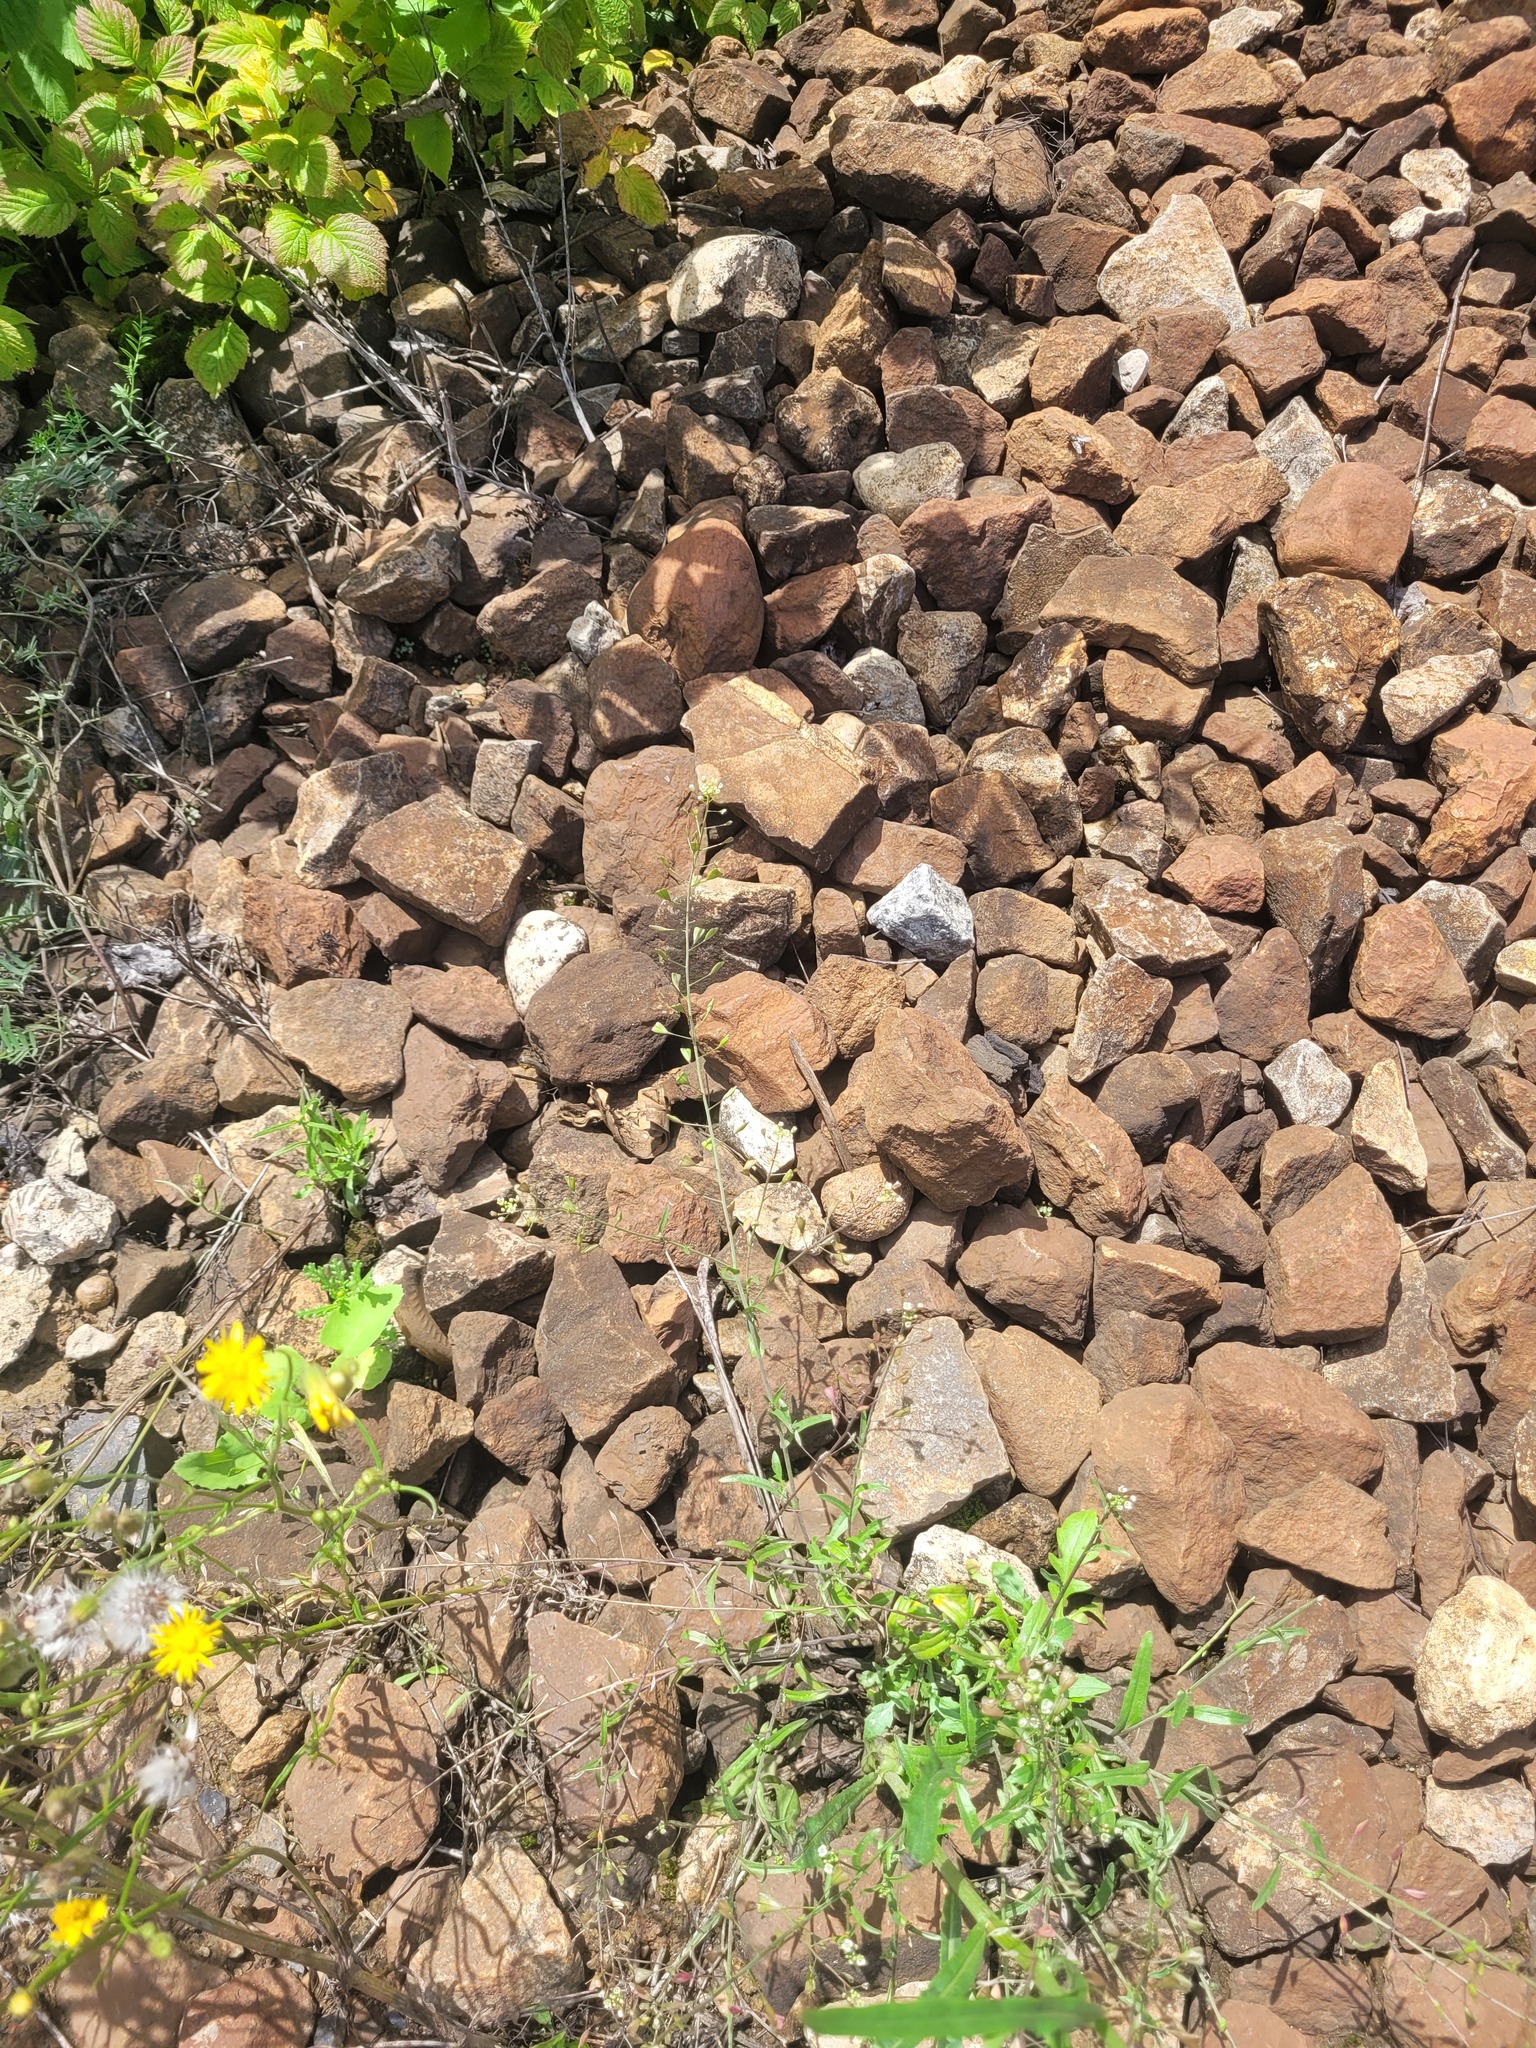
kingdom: Plantae
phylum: Tracheophyta
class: Magnoliopsida
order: Brassicales
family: Brassicaceae
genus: Capsella
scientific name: Capsella bursa-pastoris
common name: Shepherd's purse
